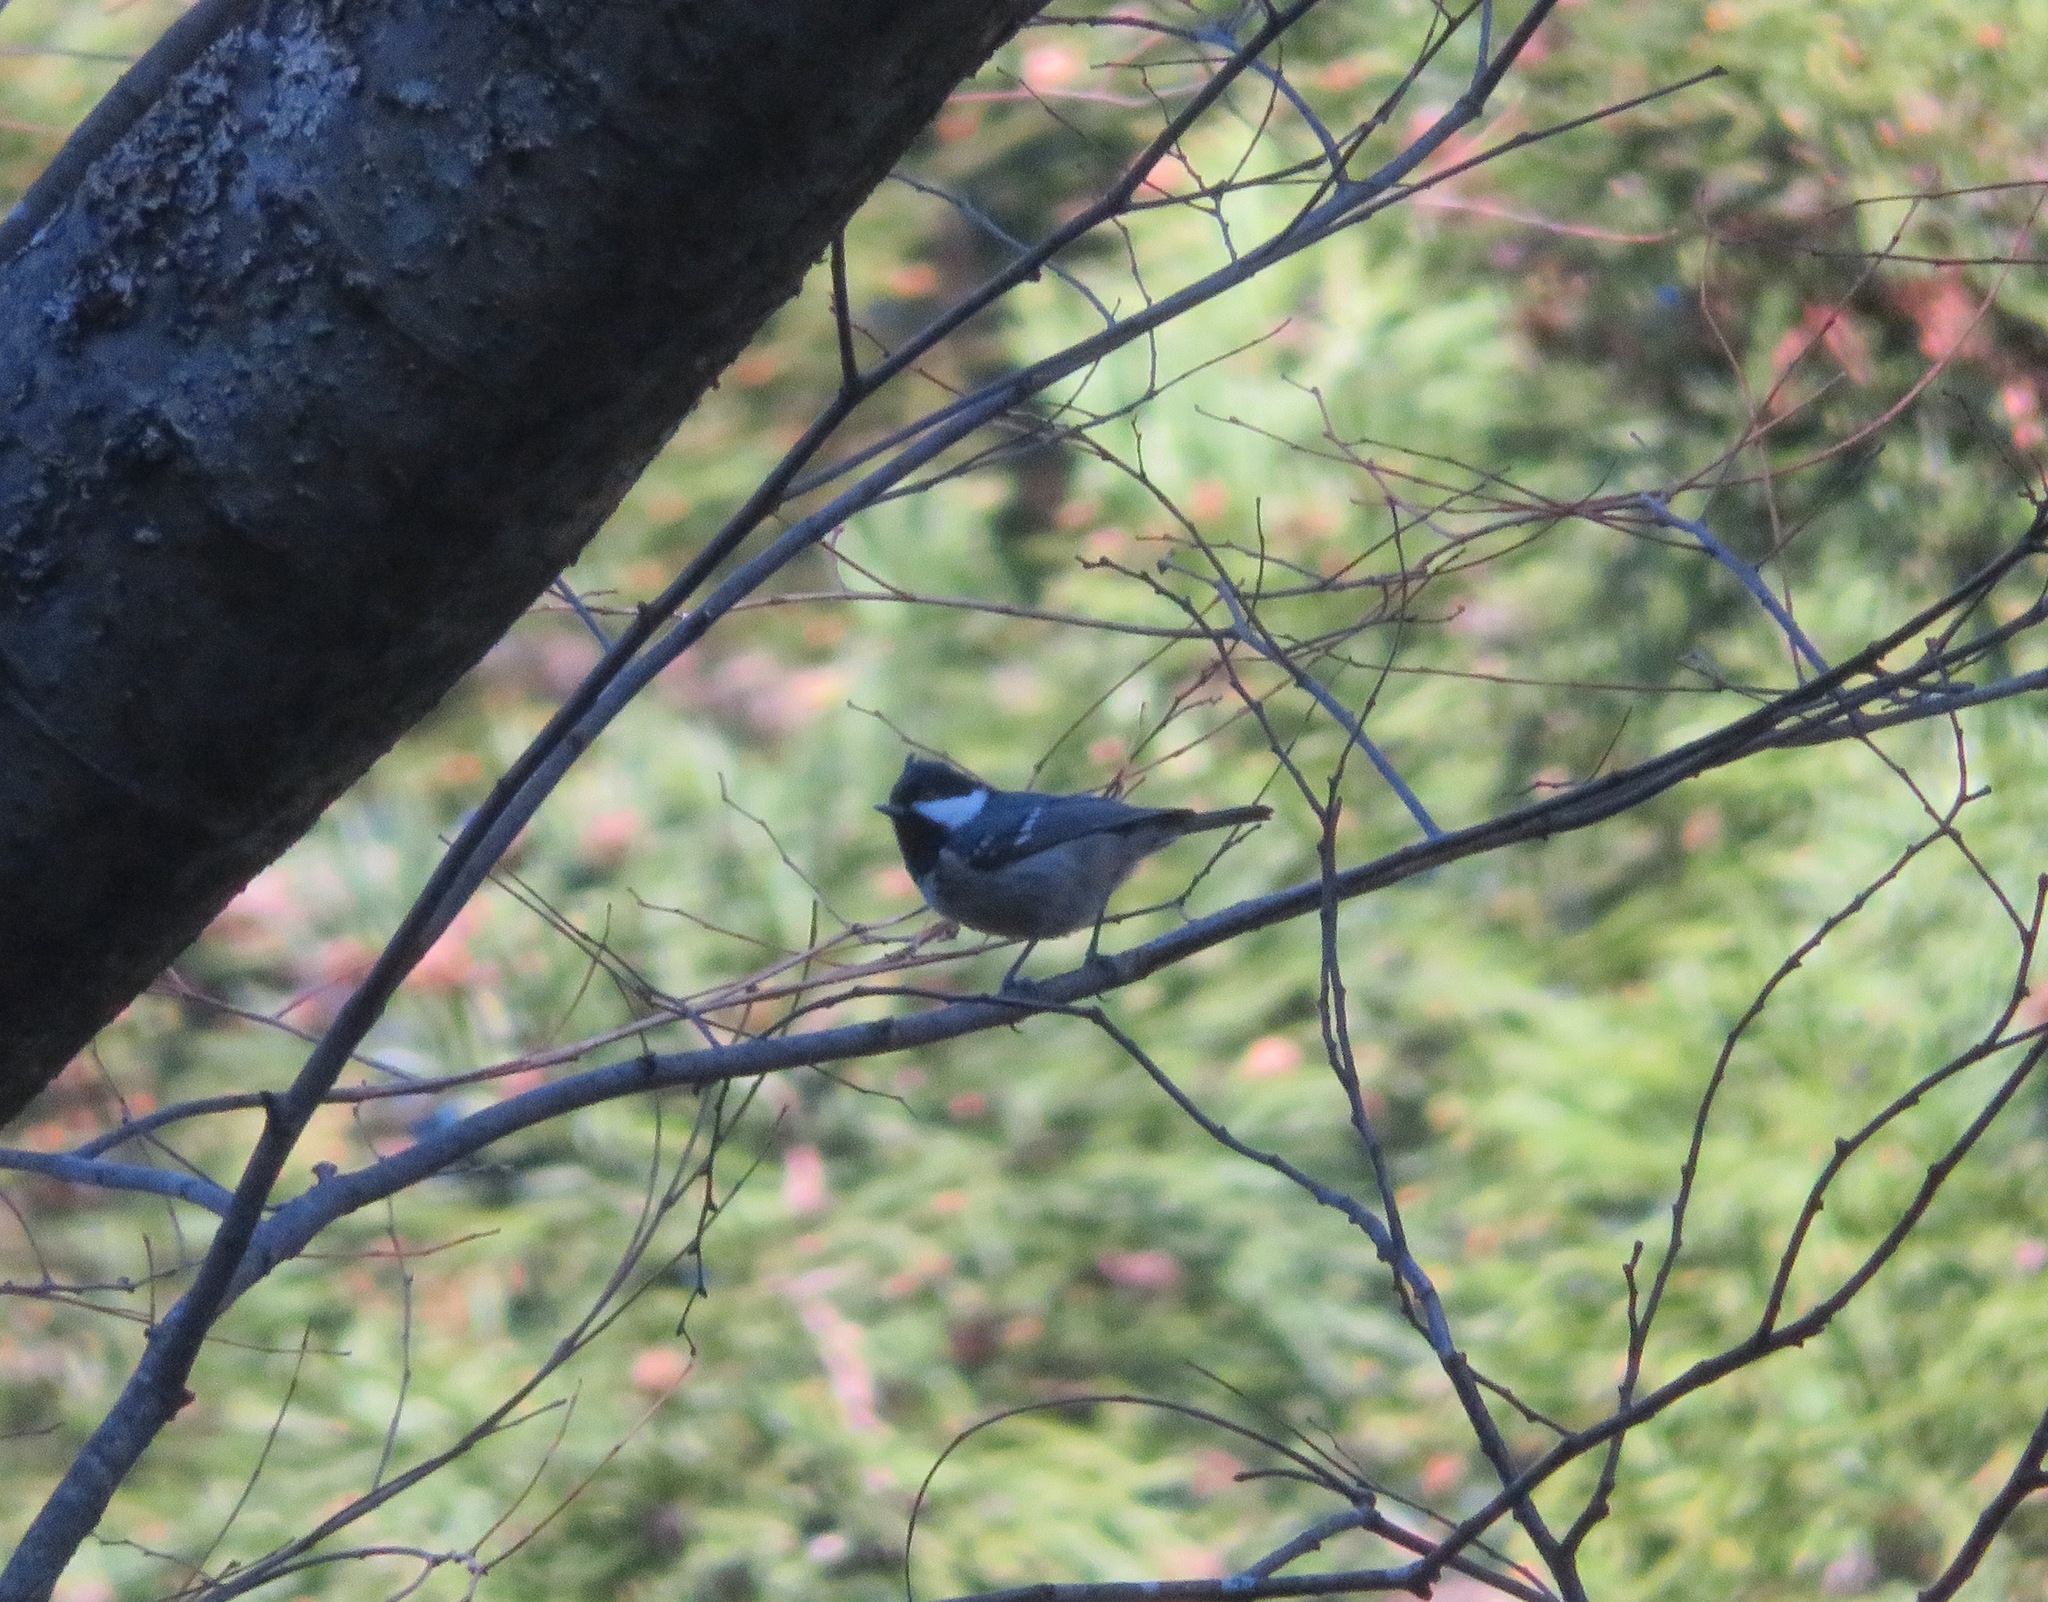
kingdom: Animalia
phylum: Chordata
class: Aves
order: Passeriformes
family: Paridae
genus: Periparus
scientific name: Periparus ater
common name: Coal tit
